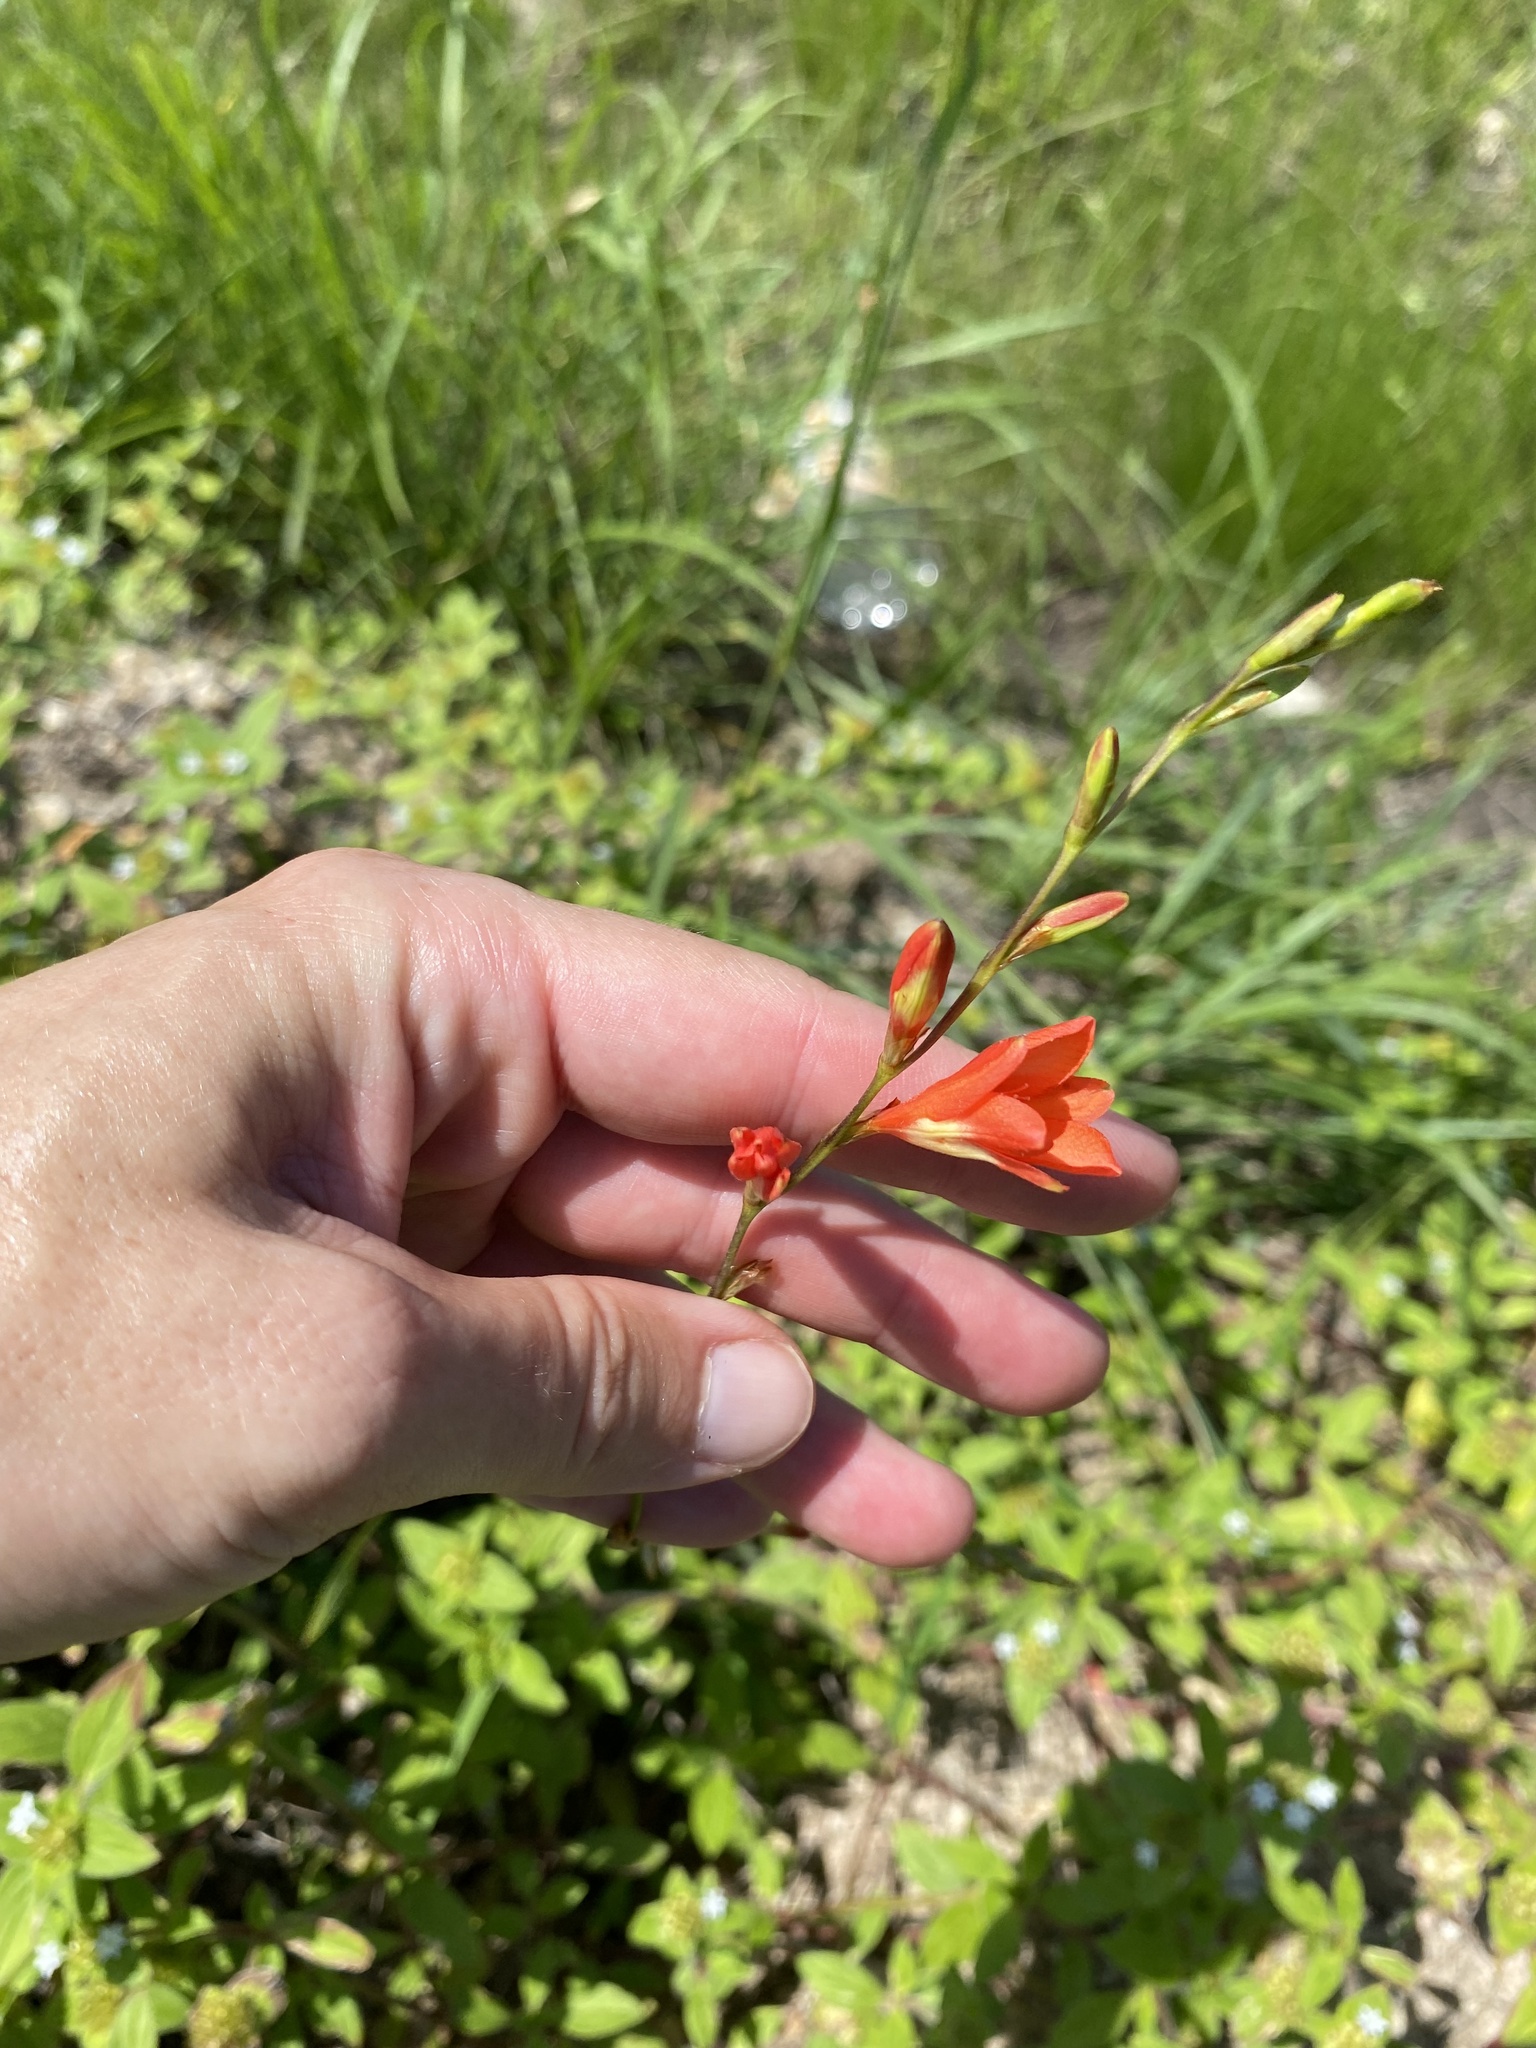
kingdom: Plantae
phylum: Tracheophyta
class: Liliopsida
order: Asparagales
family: Iridaceae
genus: Tritonia
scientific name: Tritonia disticha
